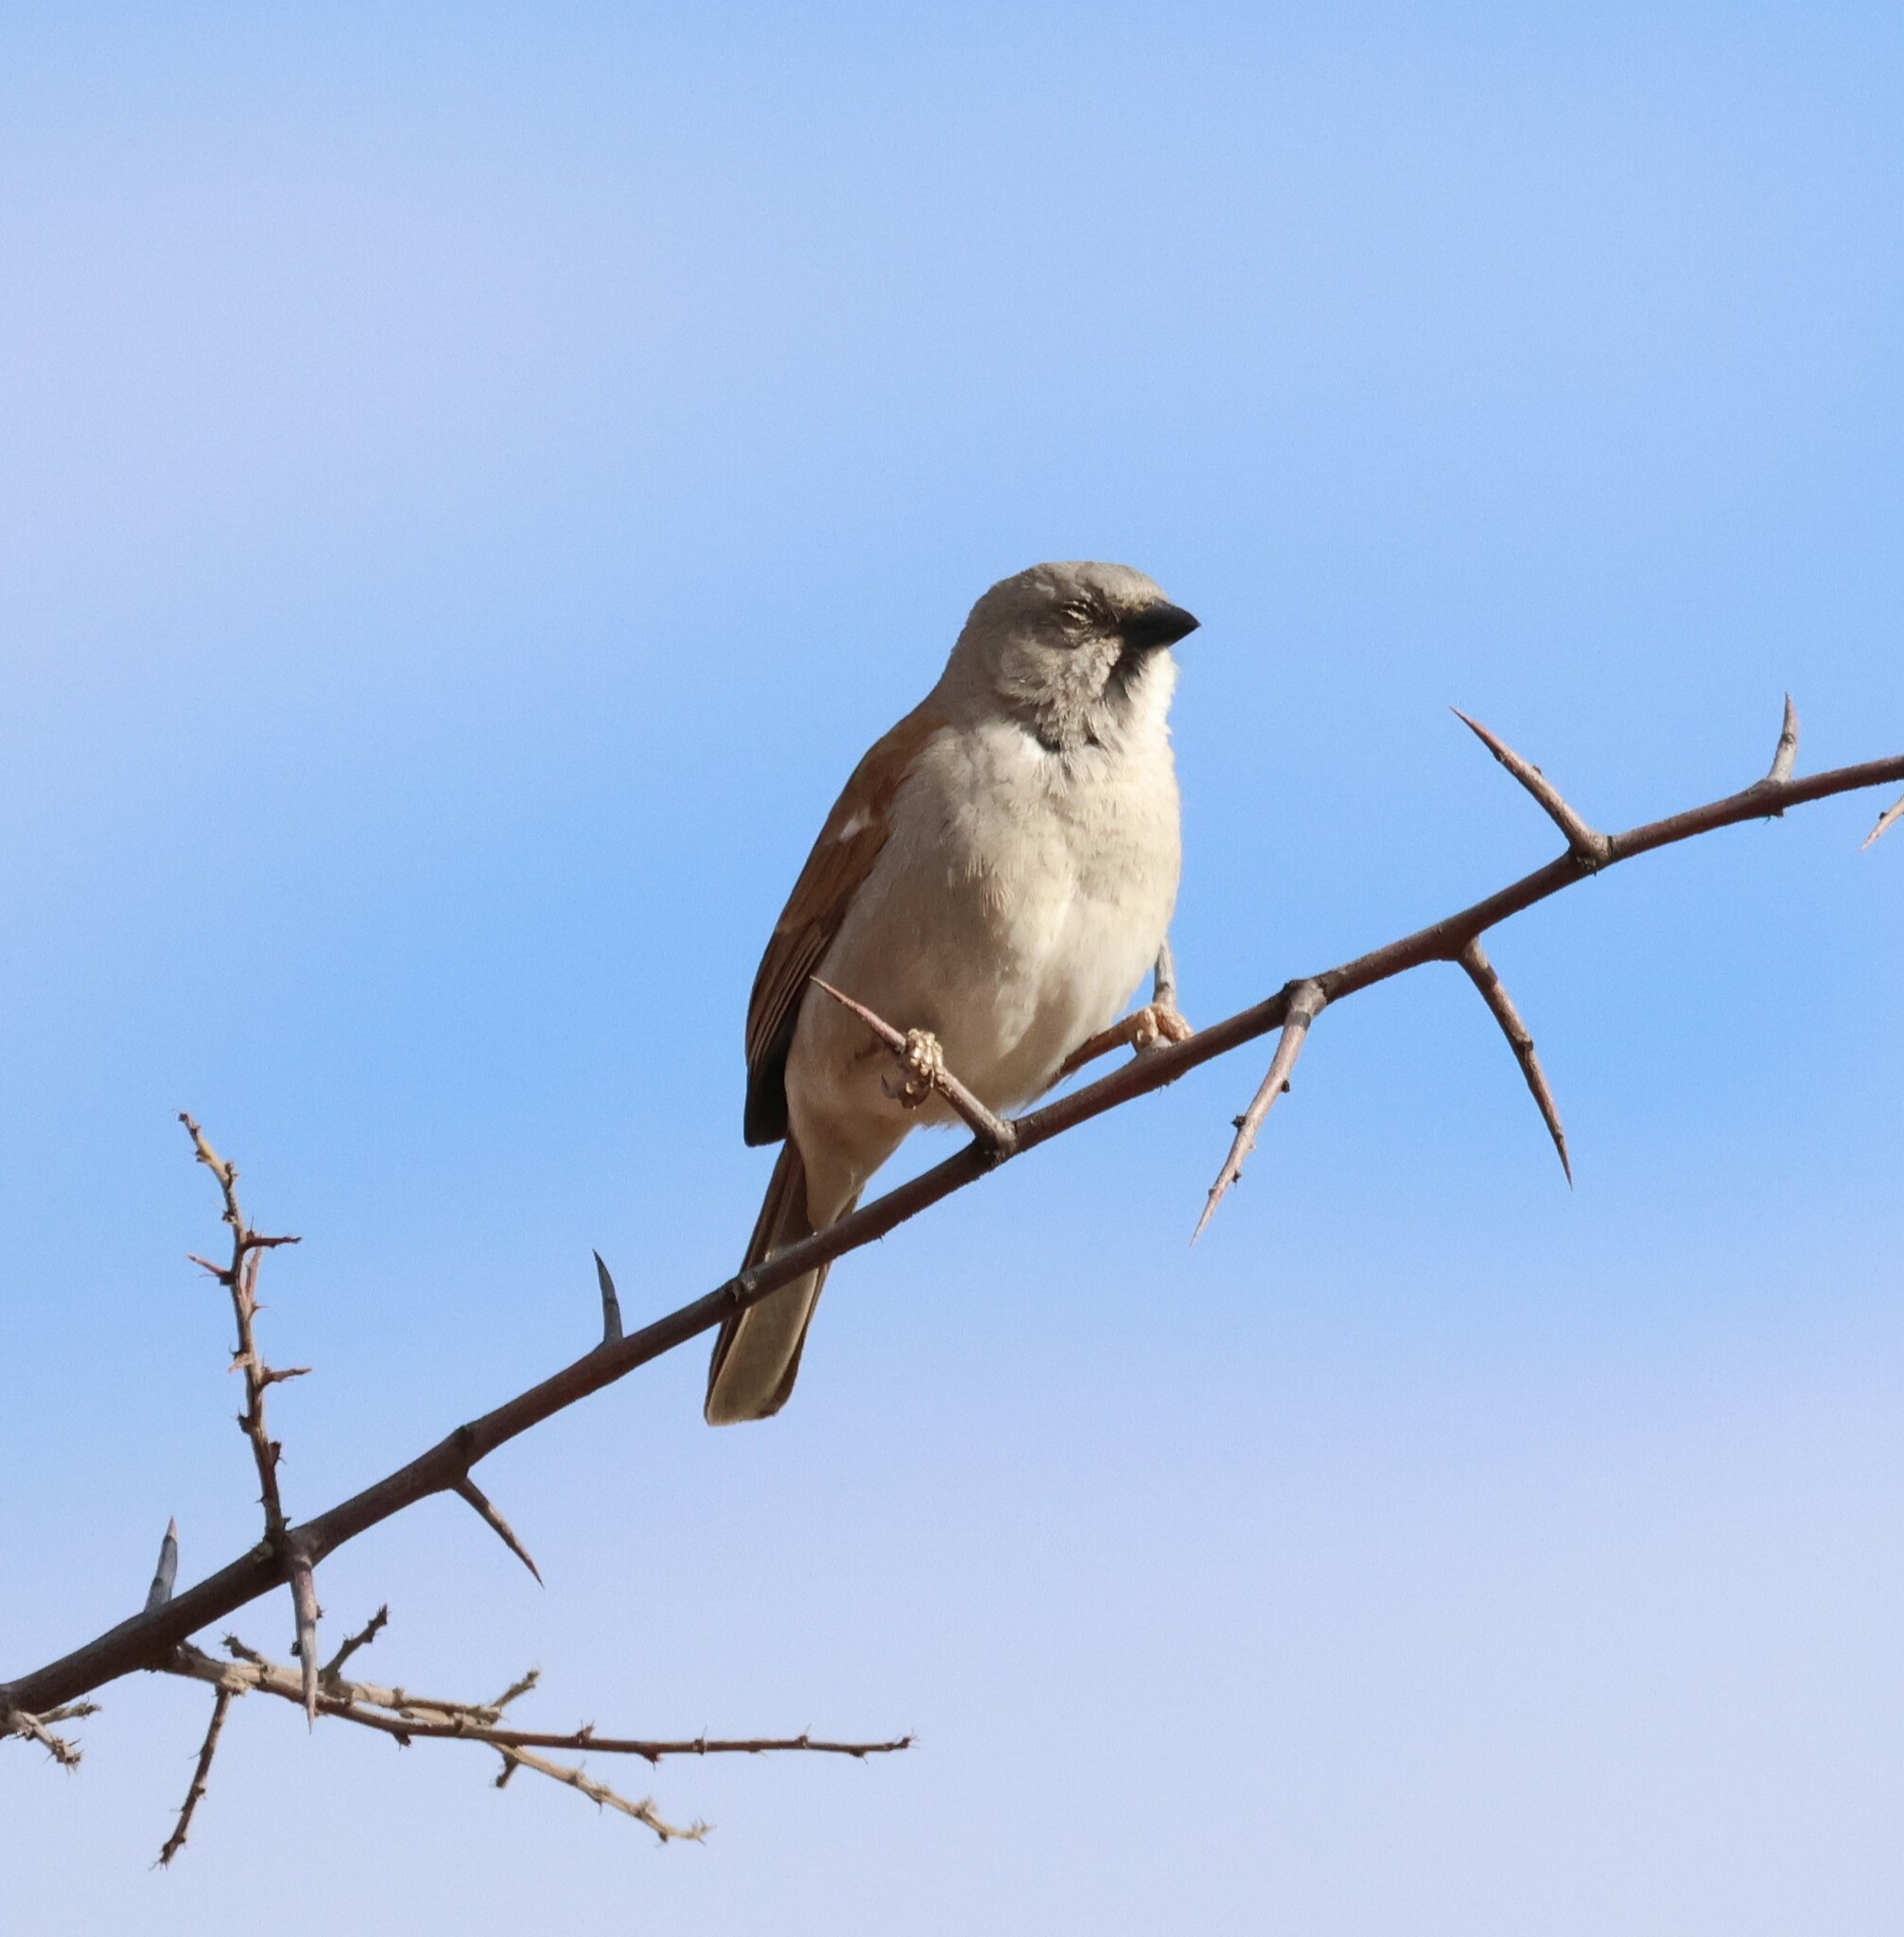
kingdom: Animalia
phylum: Chordata
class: Aves
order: Passeriformes
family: Passeridae
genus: Passer
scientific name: Passer diffusus
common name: Southern grey-headed sparrow
